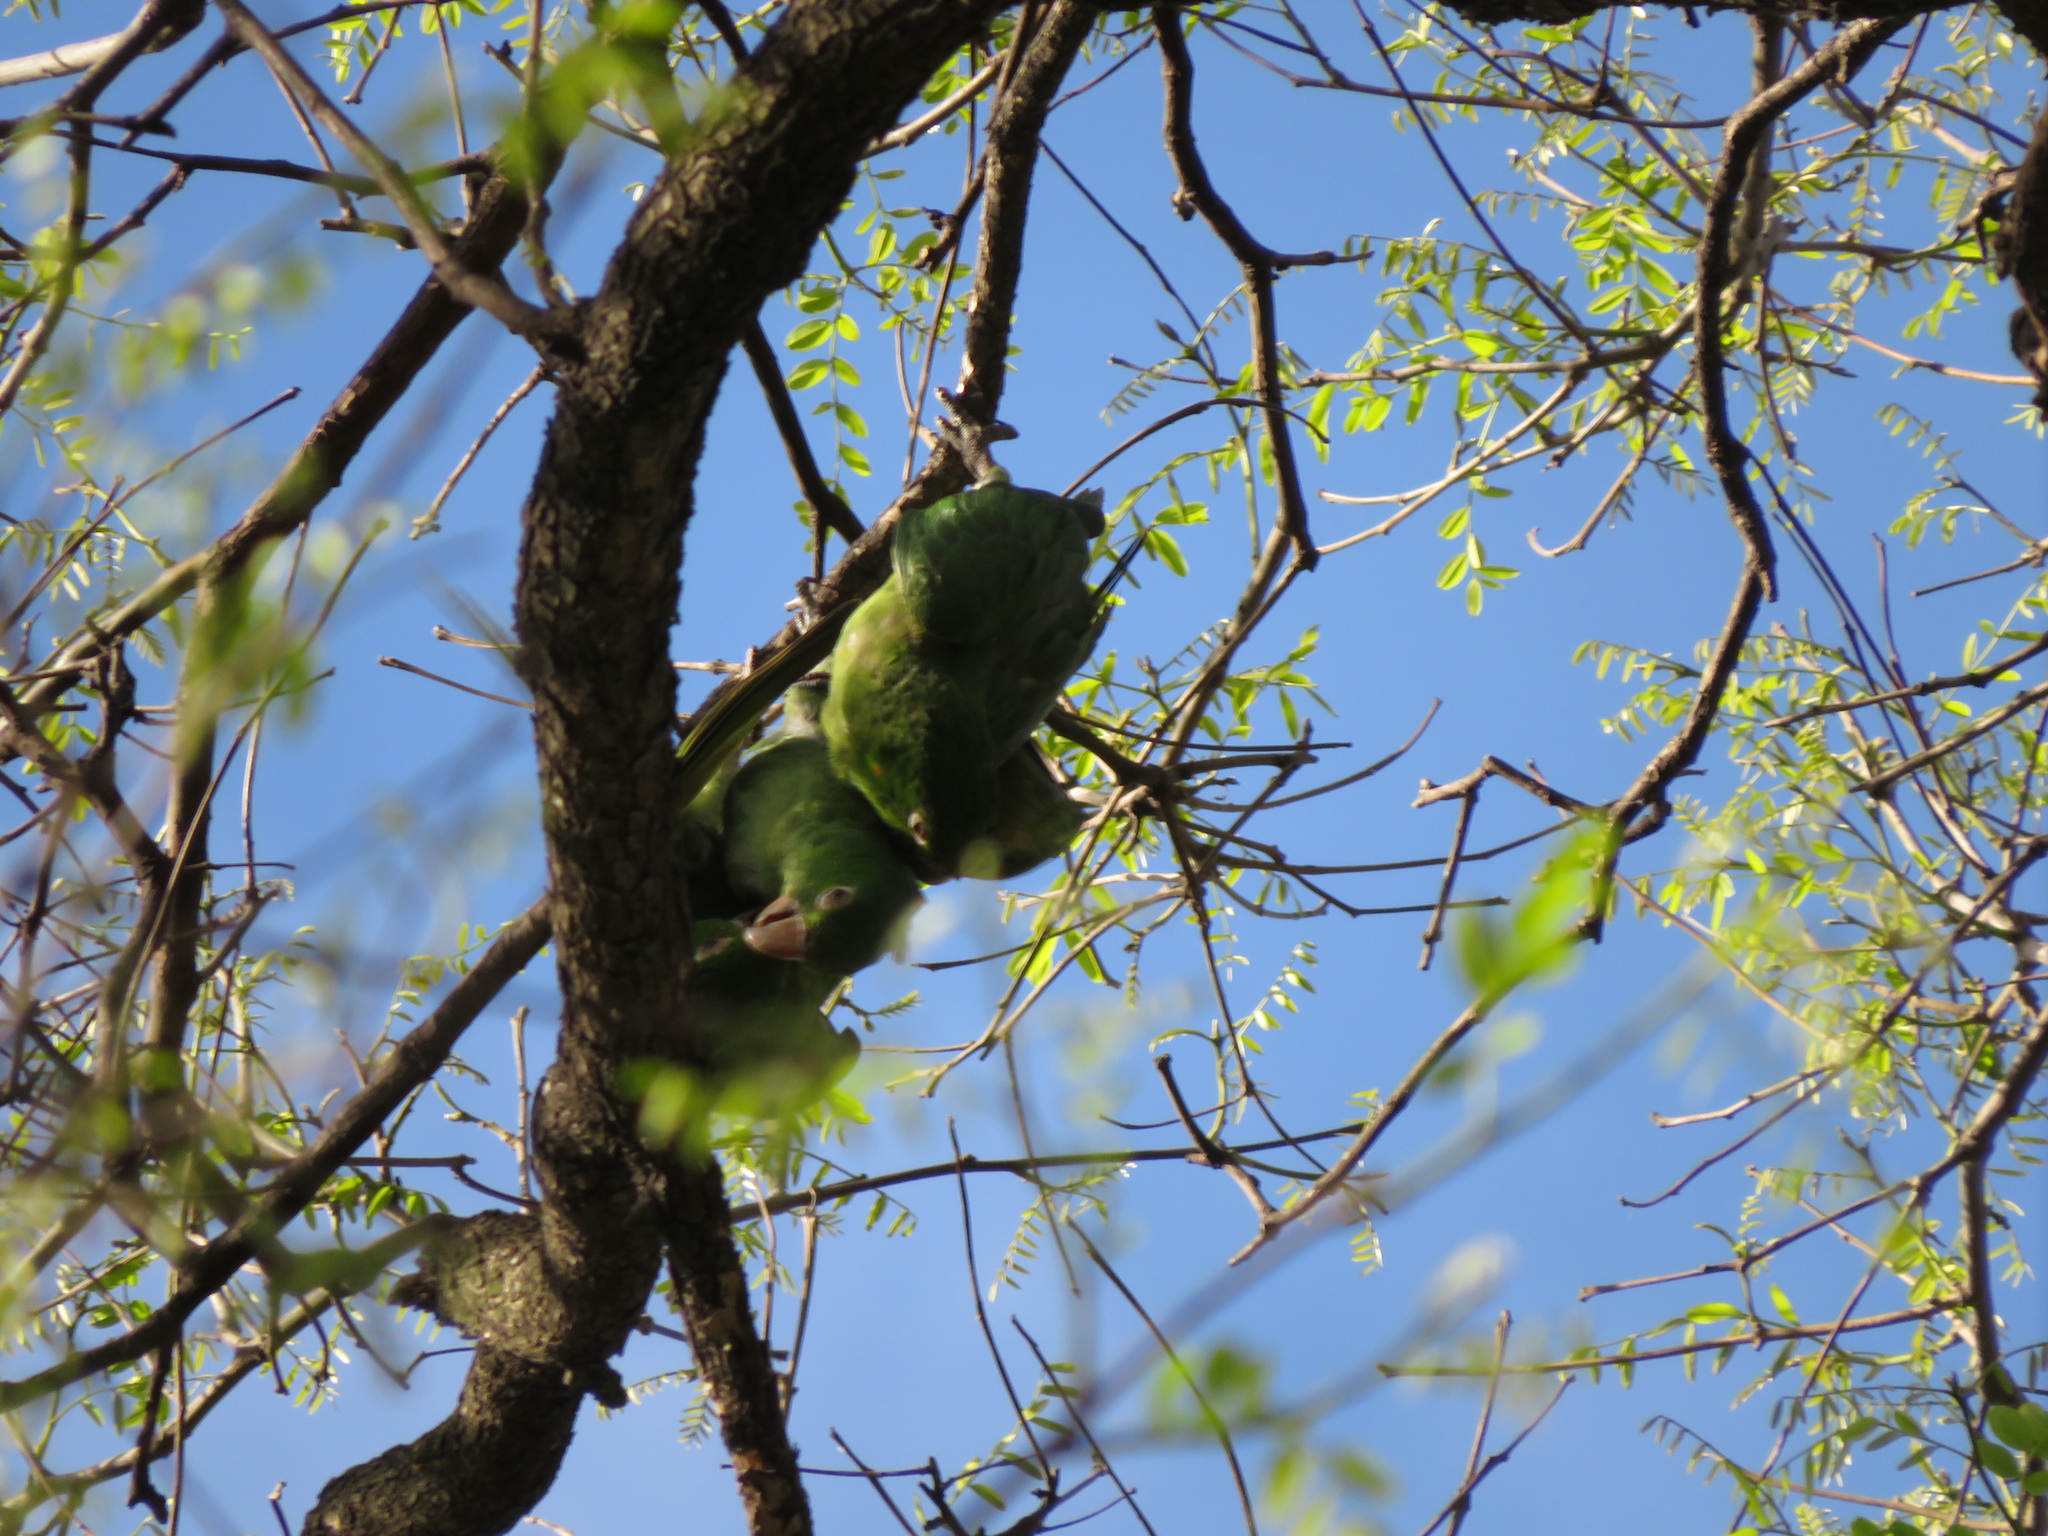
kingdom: Animalia
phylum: Chordata
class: Aves
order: Psittaciformes
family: Psittacidae
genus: Aratinga
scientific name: Aratinga leucophthalma
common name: White-eyed parakeet
